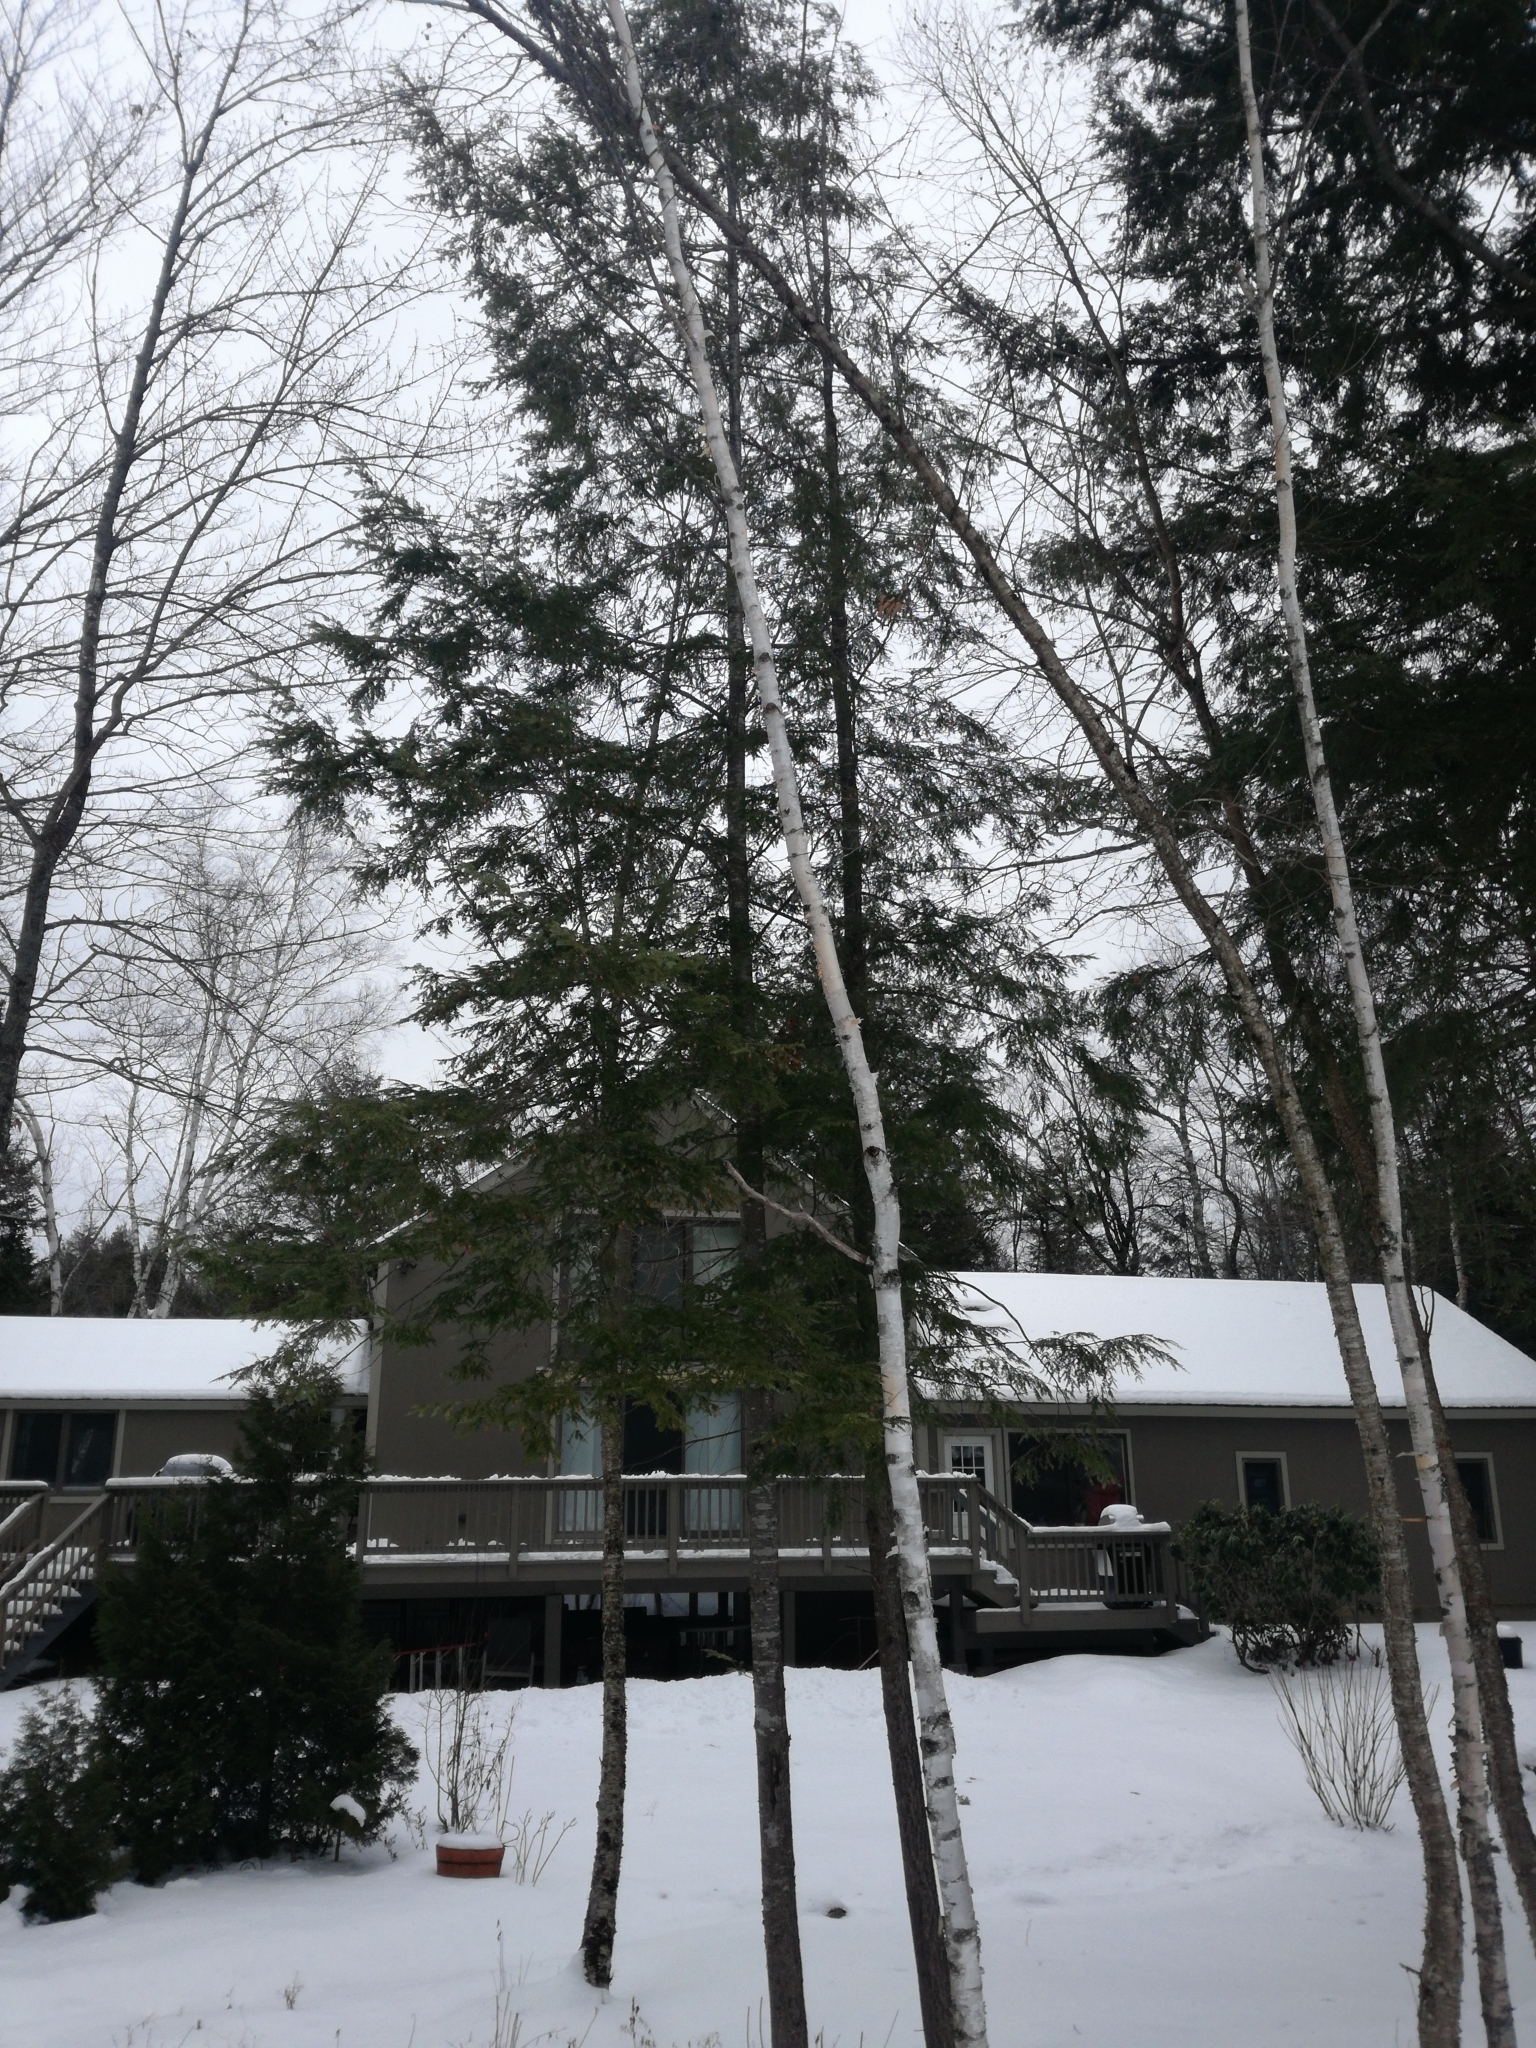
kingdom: Plantae
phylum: Tracheophyta
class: Magnoliopsida
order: Fagales
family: Betulaceae
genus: Betula
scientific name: Betula papyrifera
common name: Paper birch
